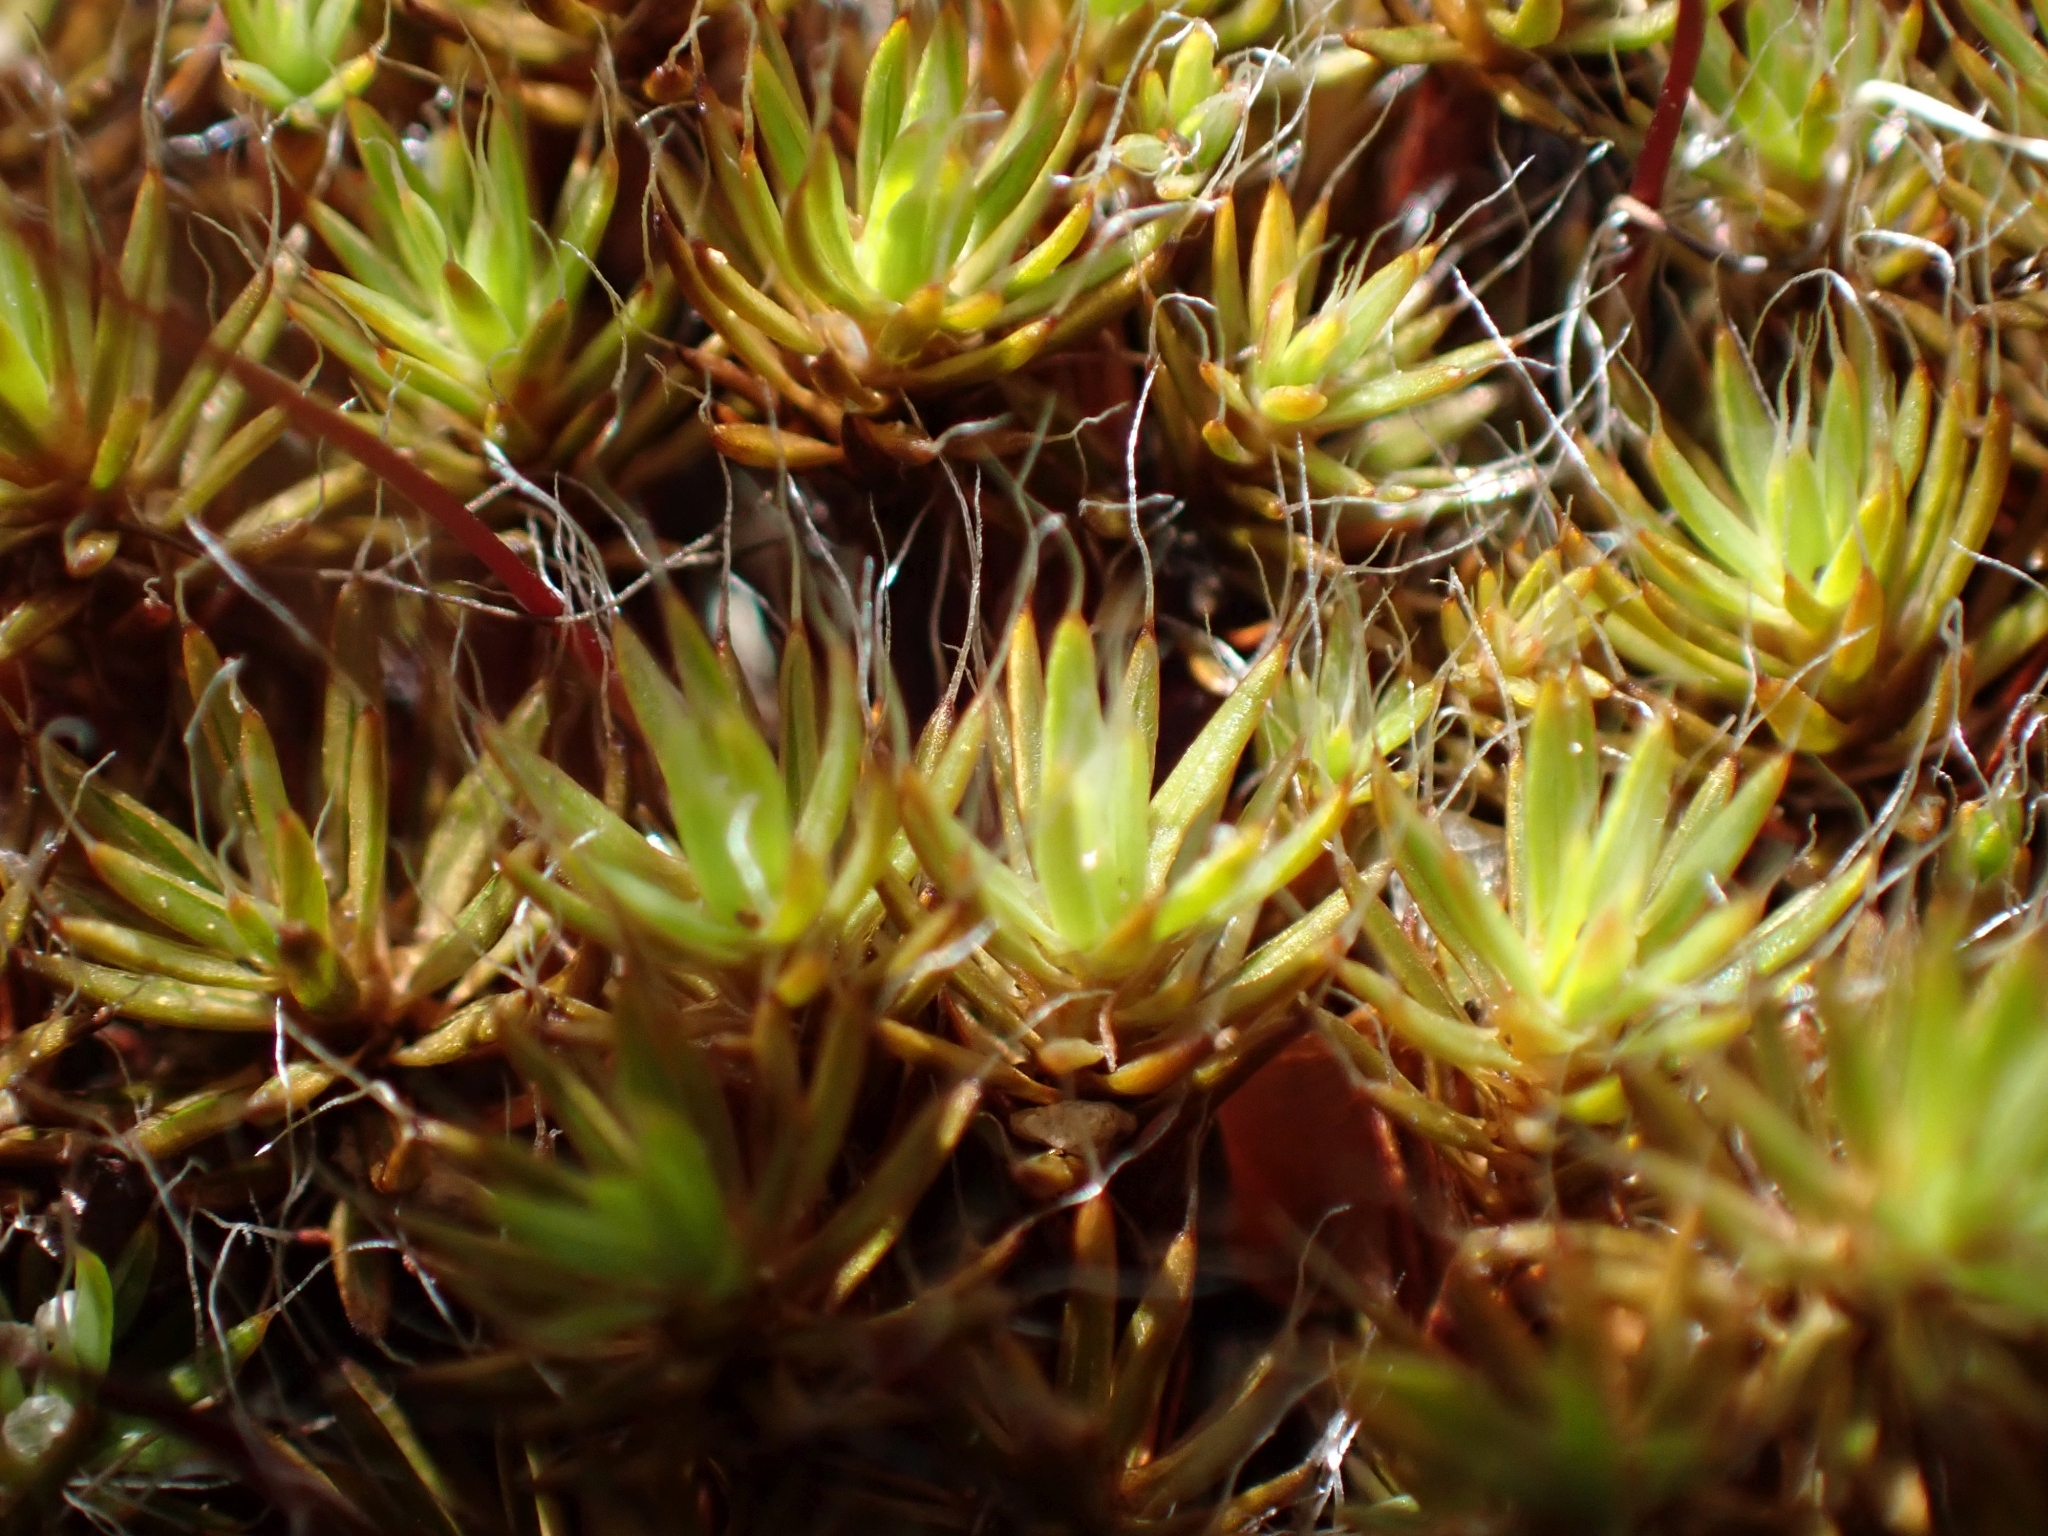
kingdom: Plantae
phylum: Bryophyta
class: Polytrichopsida
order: Polytrichales
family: Polytrichaceae
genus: Polytrichum
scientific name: Polytrichum piliferum
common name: Bristly haircap
